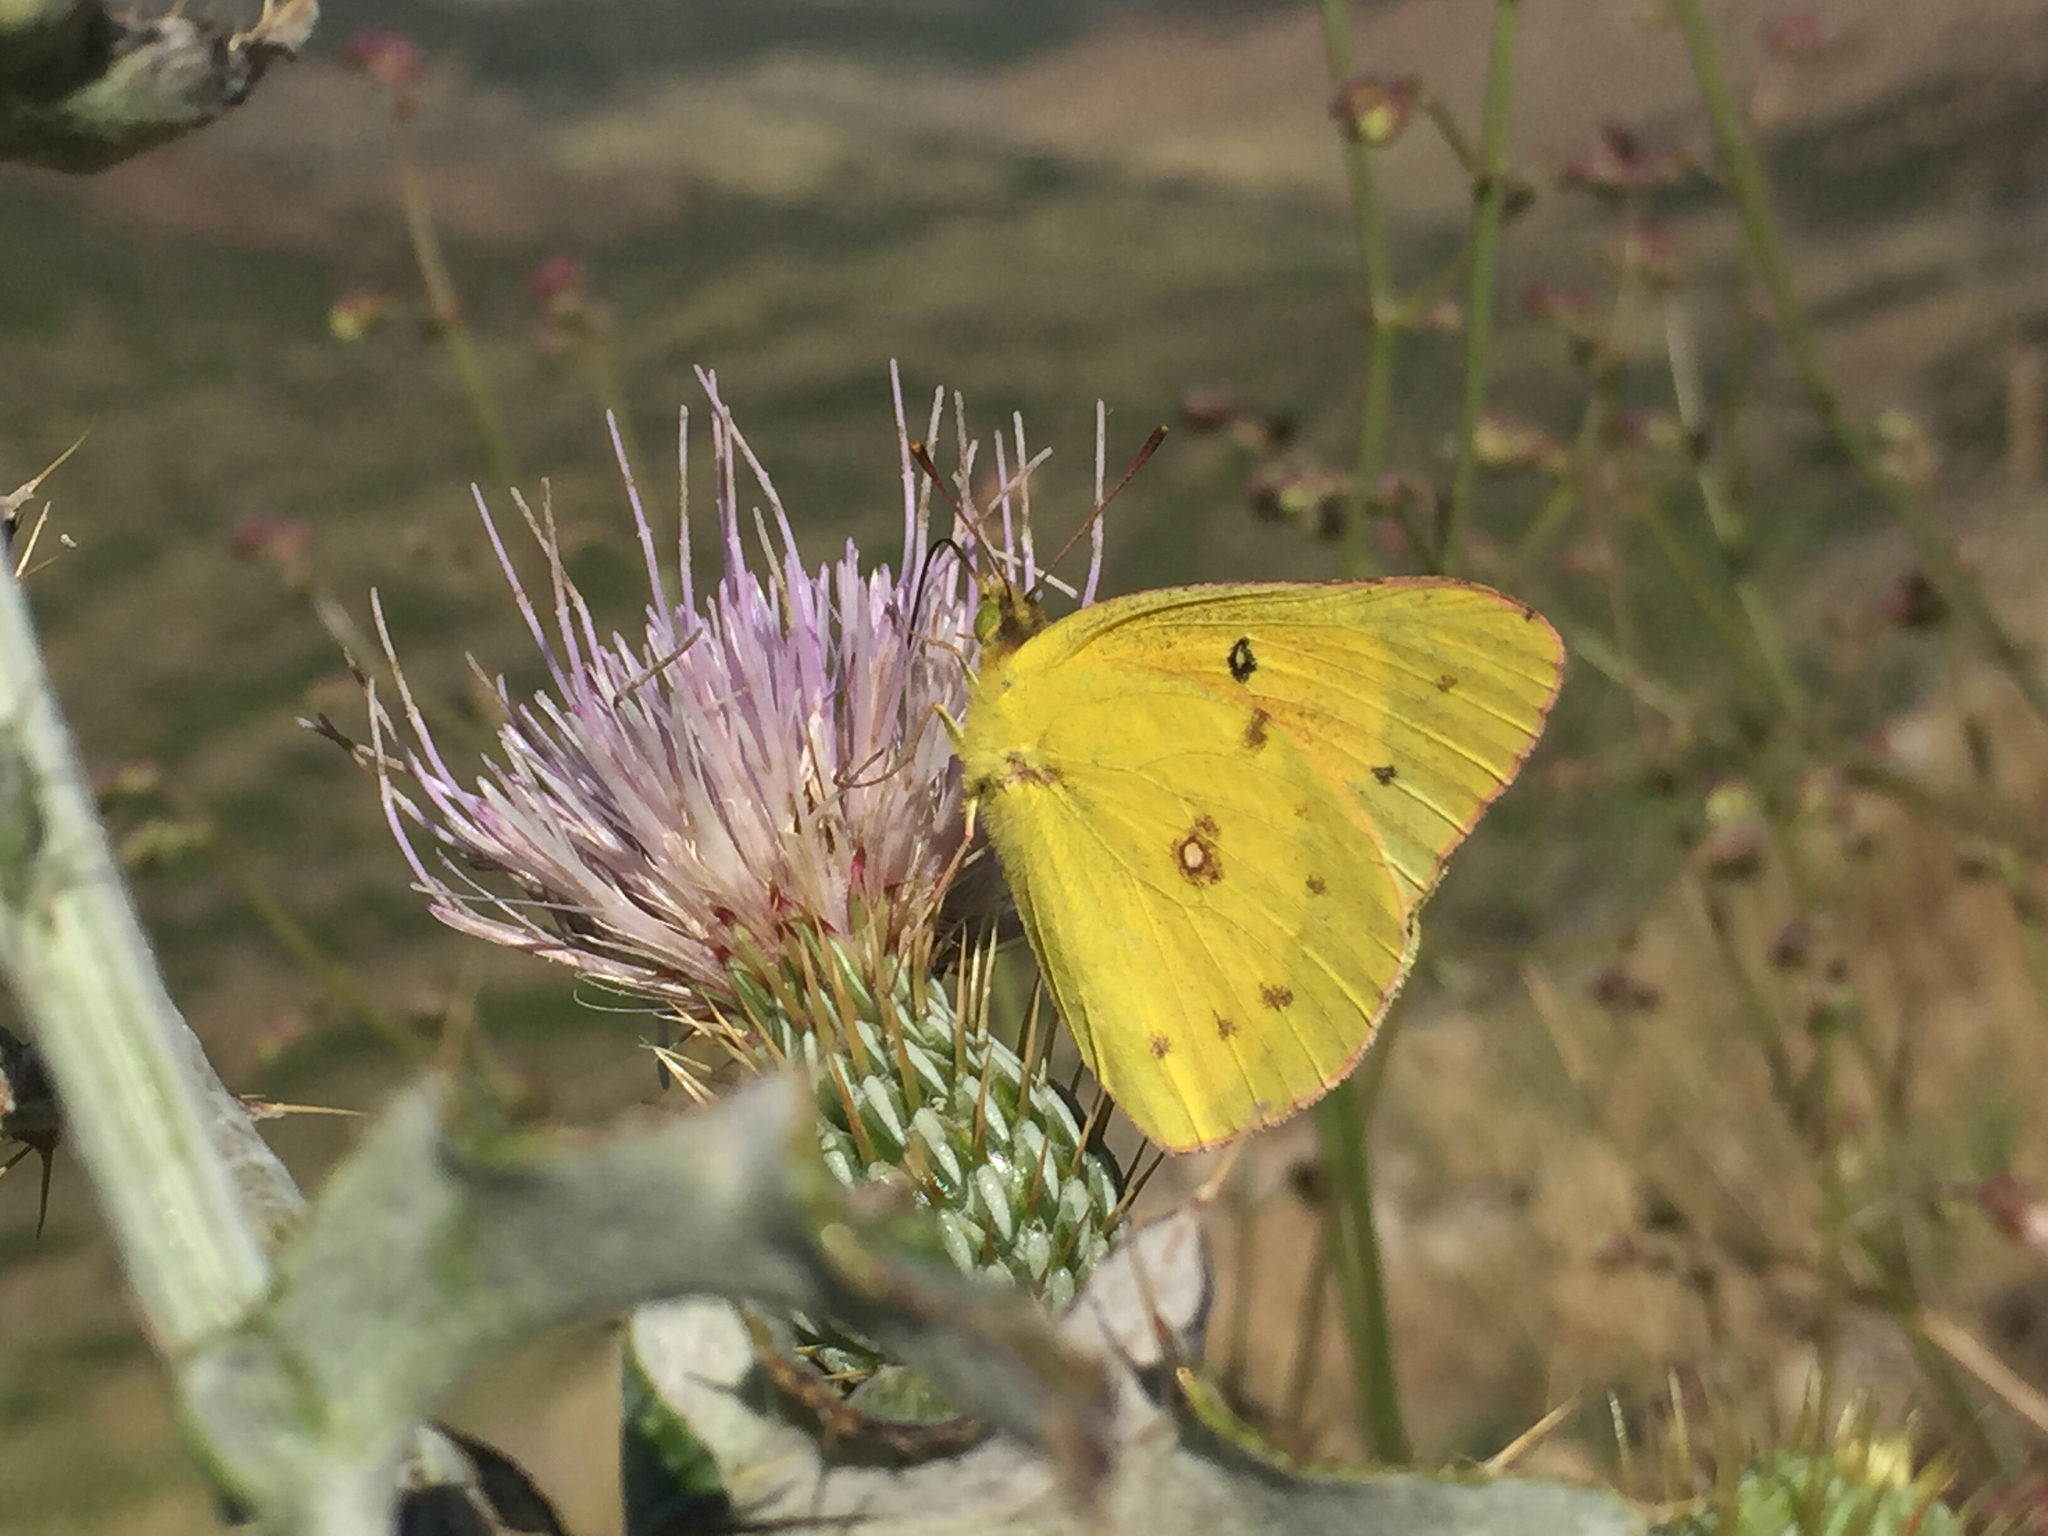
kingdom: Animalia
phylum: Arthropoda
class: Insecta
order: Lepidoptera
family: Pieridae
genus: Colias
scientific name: Colias eurytheme
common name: Alfalfa butterfly
